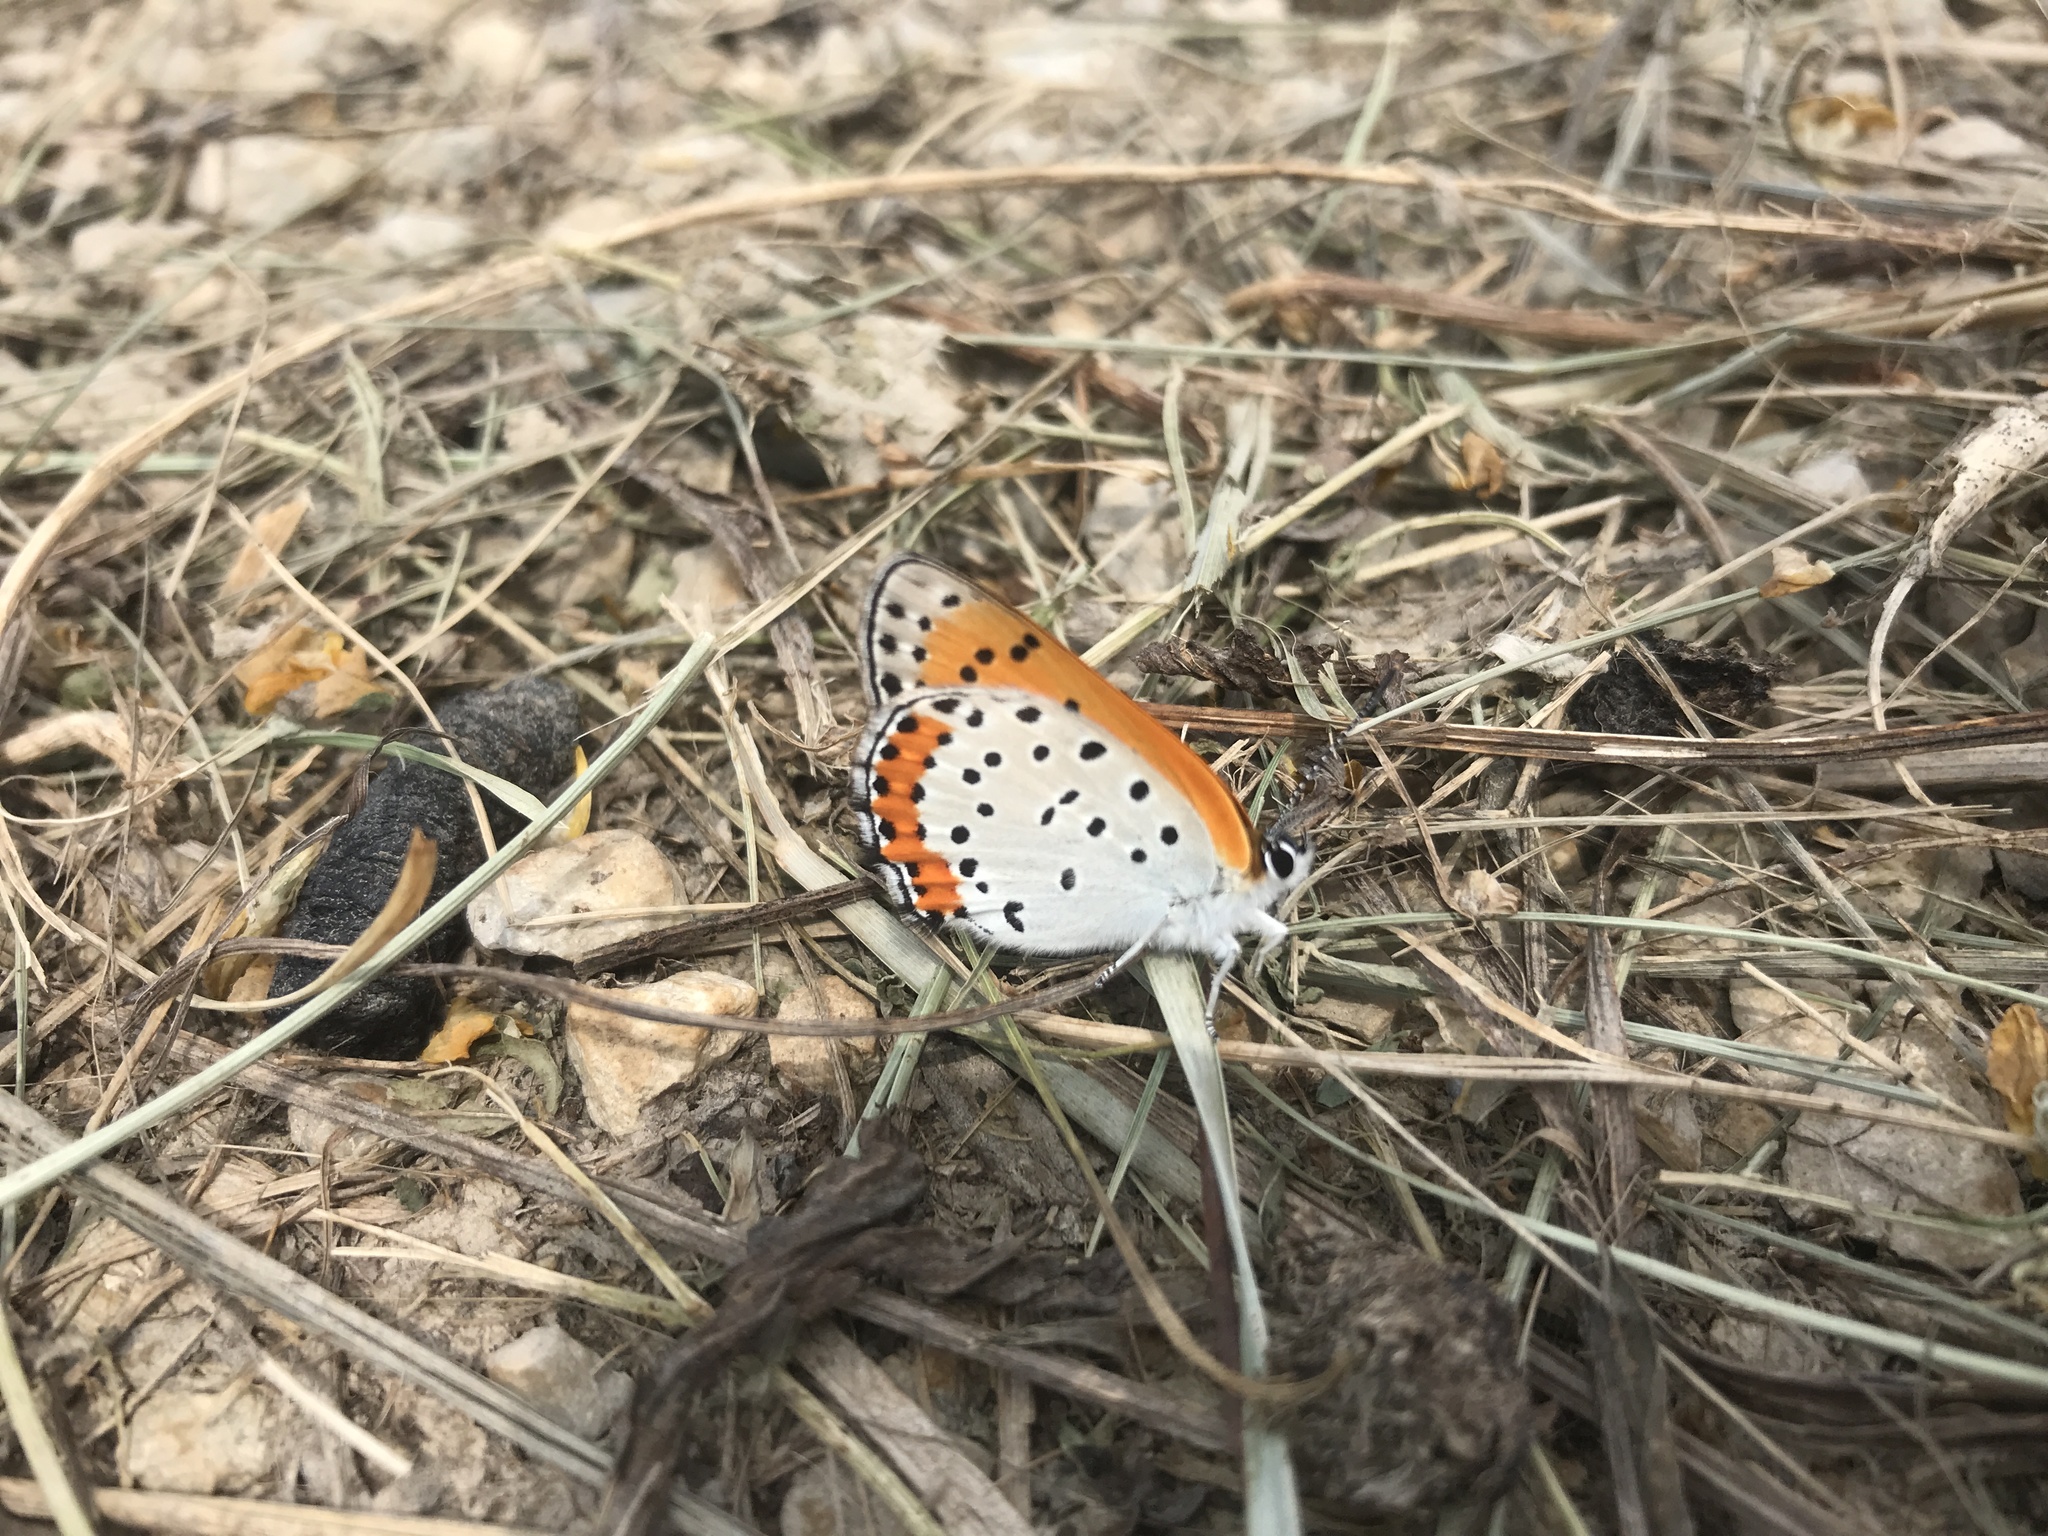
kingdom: Animalia
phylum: Arthropoda
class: Insecta
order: Lepidoptera
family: Lycaenidae
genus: Tharsalea
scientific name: Tharsalea hyllus
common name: Bronze copper
